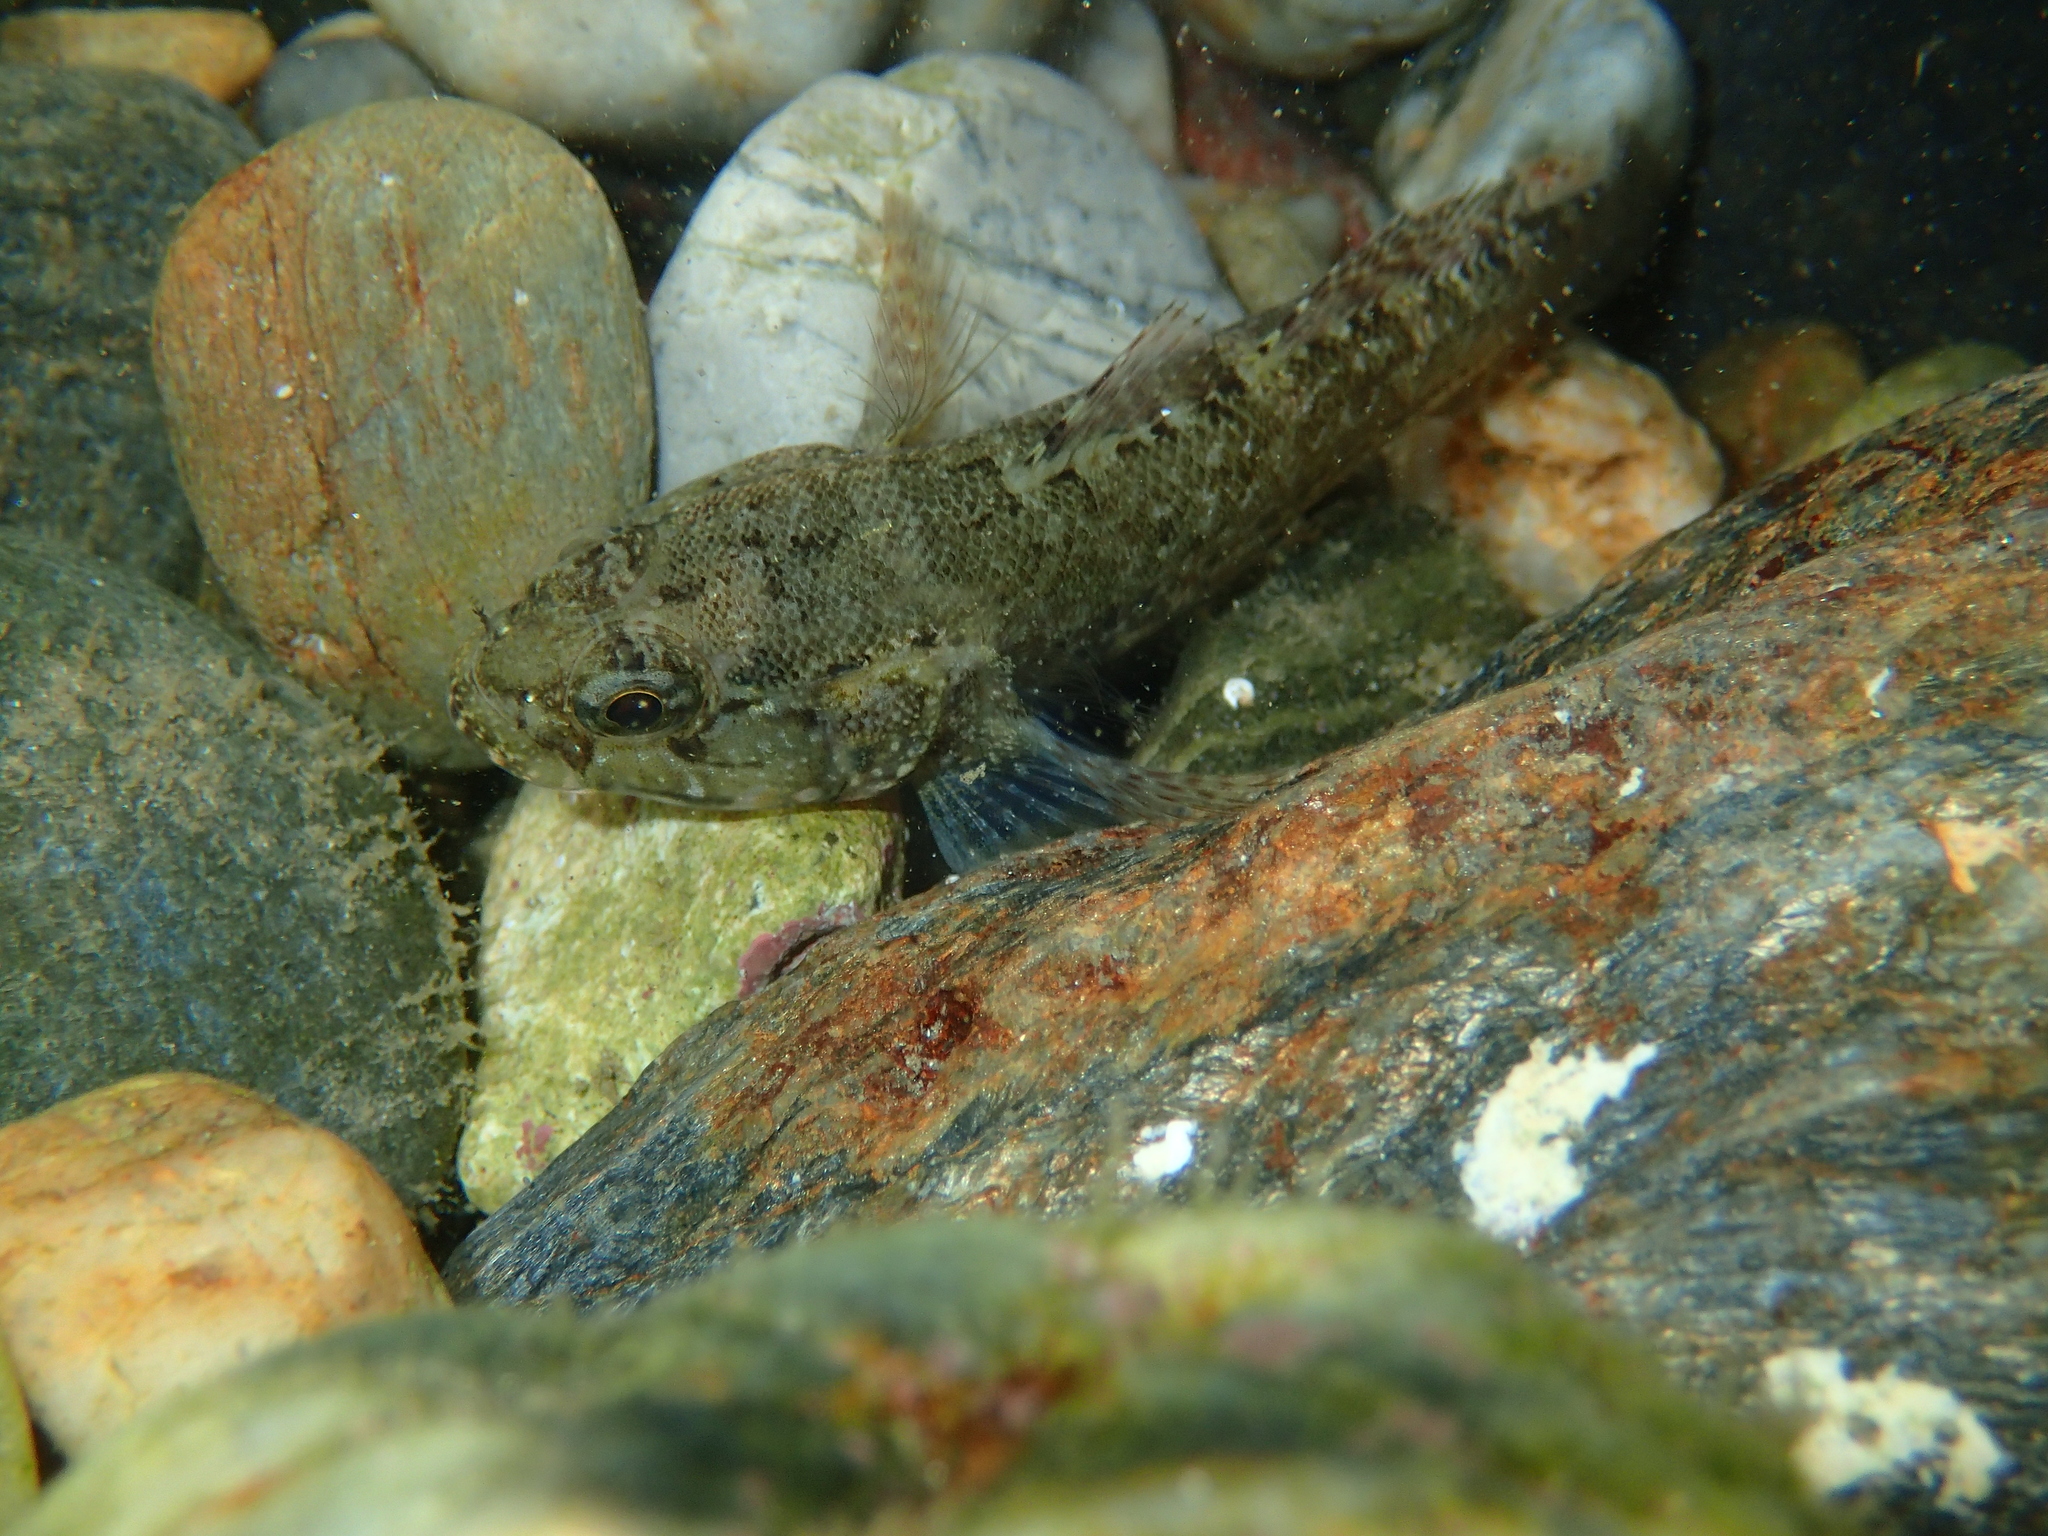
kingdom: Animalia
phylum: Chordata
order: Perciformes
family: Gobiidae
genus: Gobius
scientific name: Gobius paganellus
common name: Rock goby
